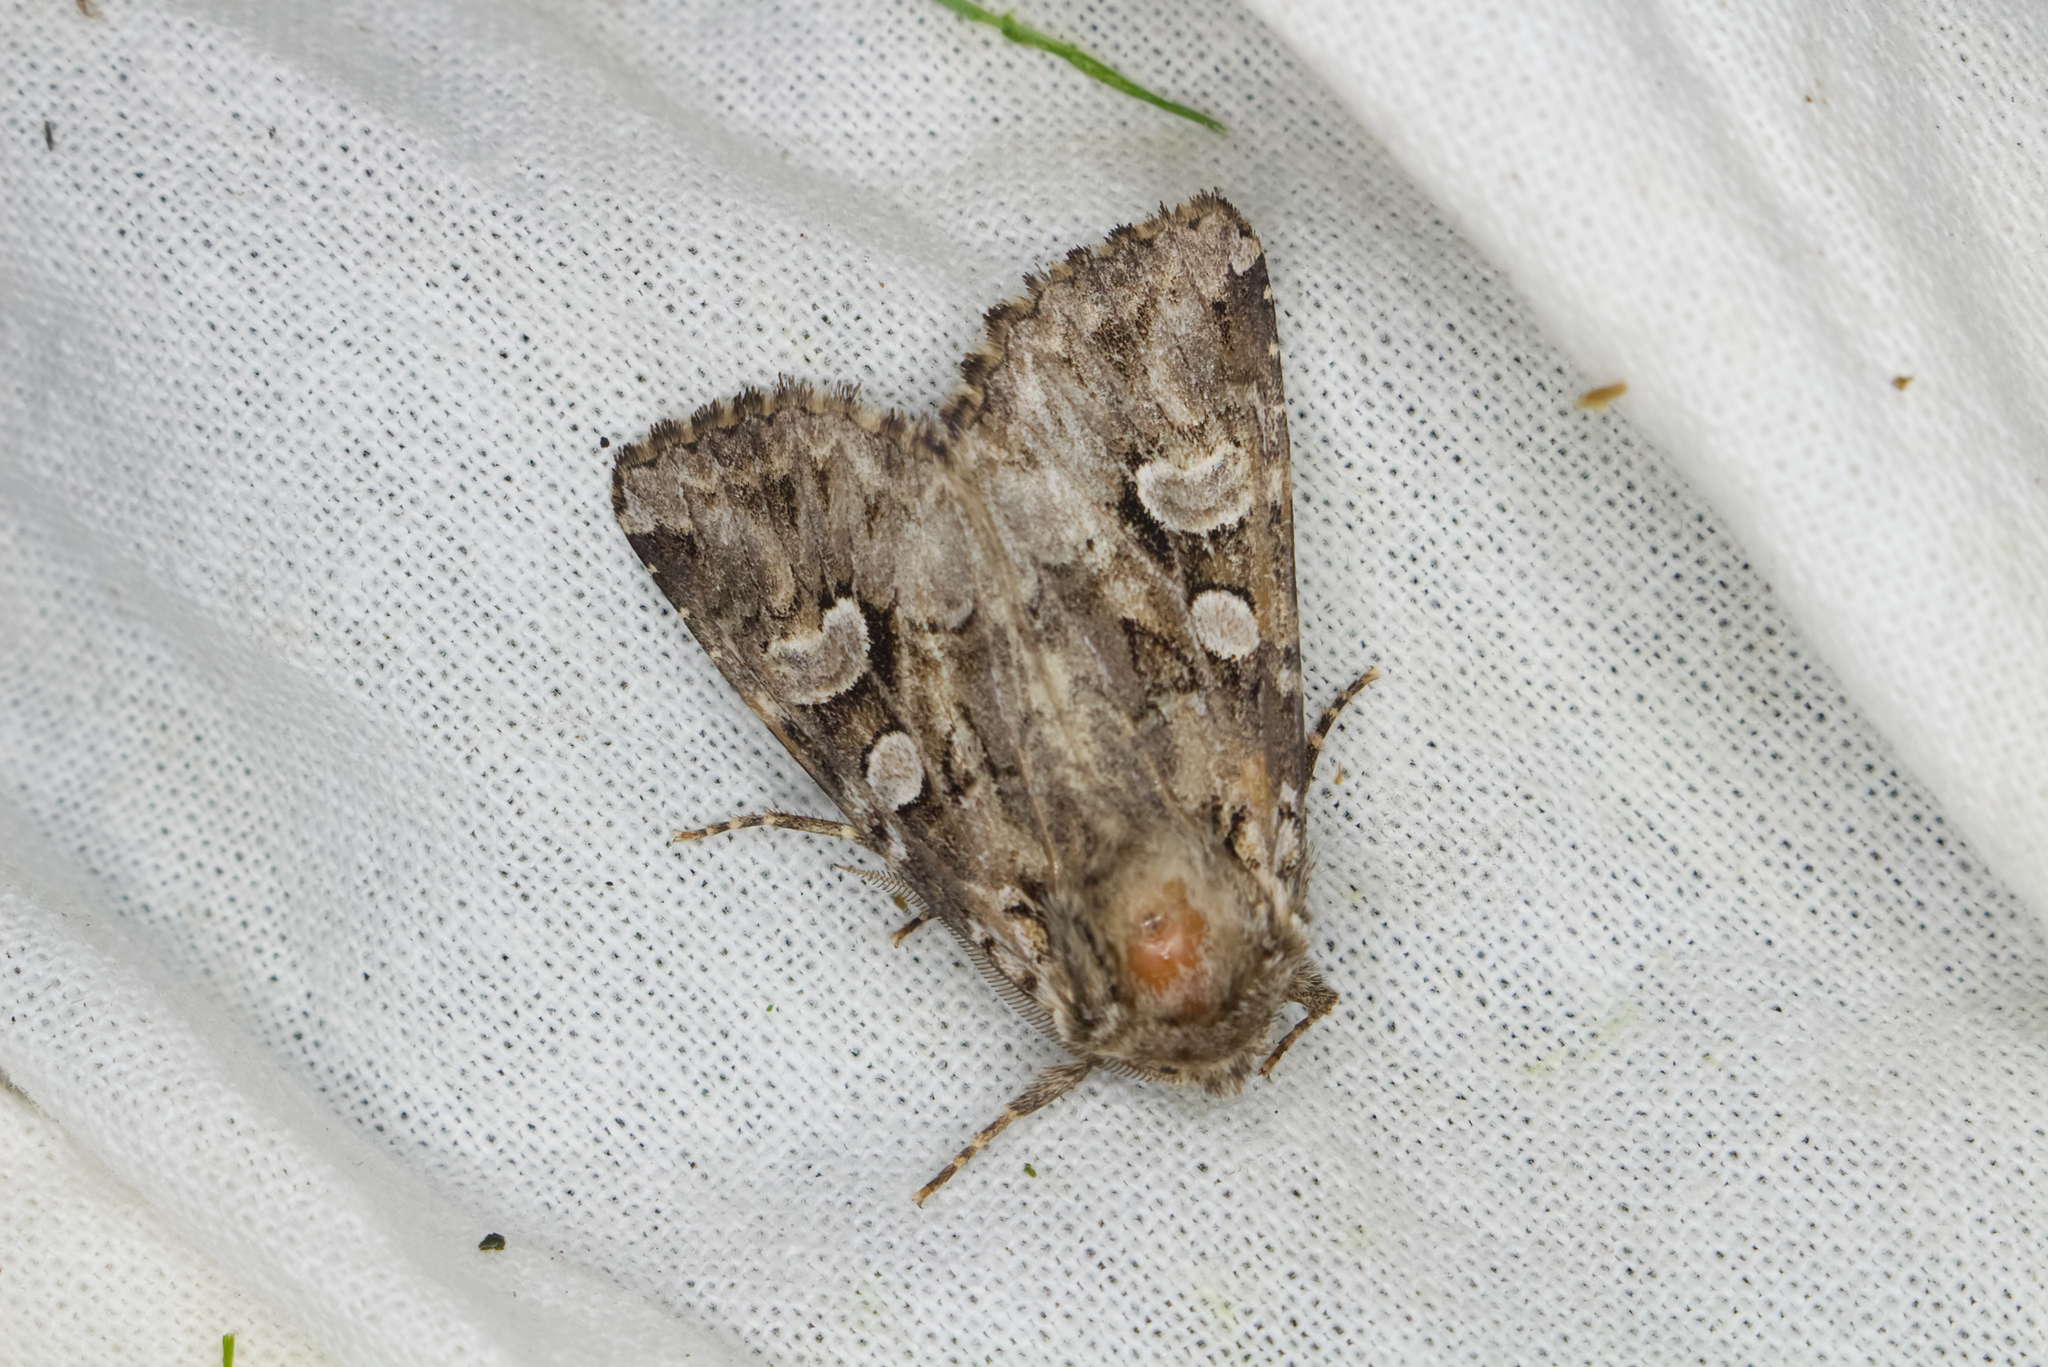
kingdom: Animalia
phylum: Arthropoda
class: Insecta
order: Lepidoptera
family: Noctuidae
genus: Pachetra
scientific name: Pachetra sagittigera
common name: Feathered ear
